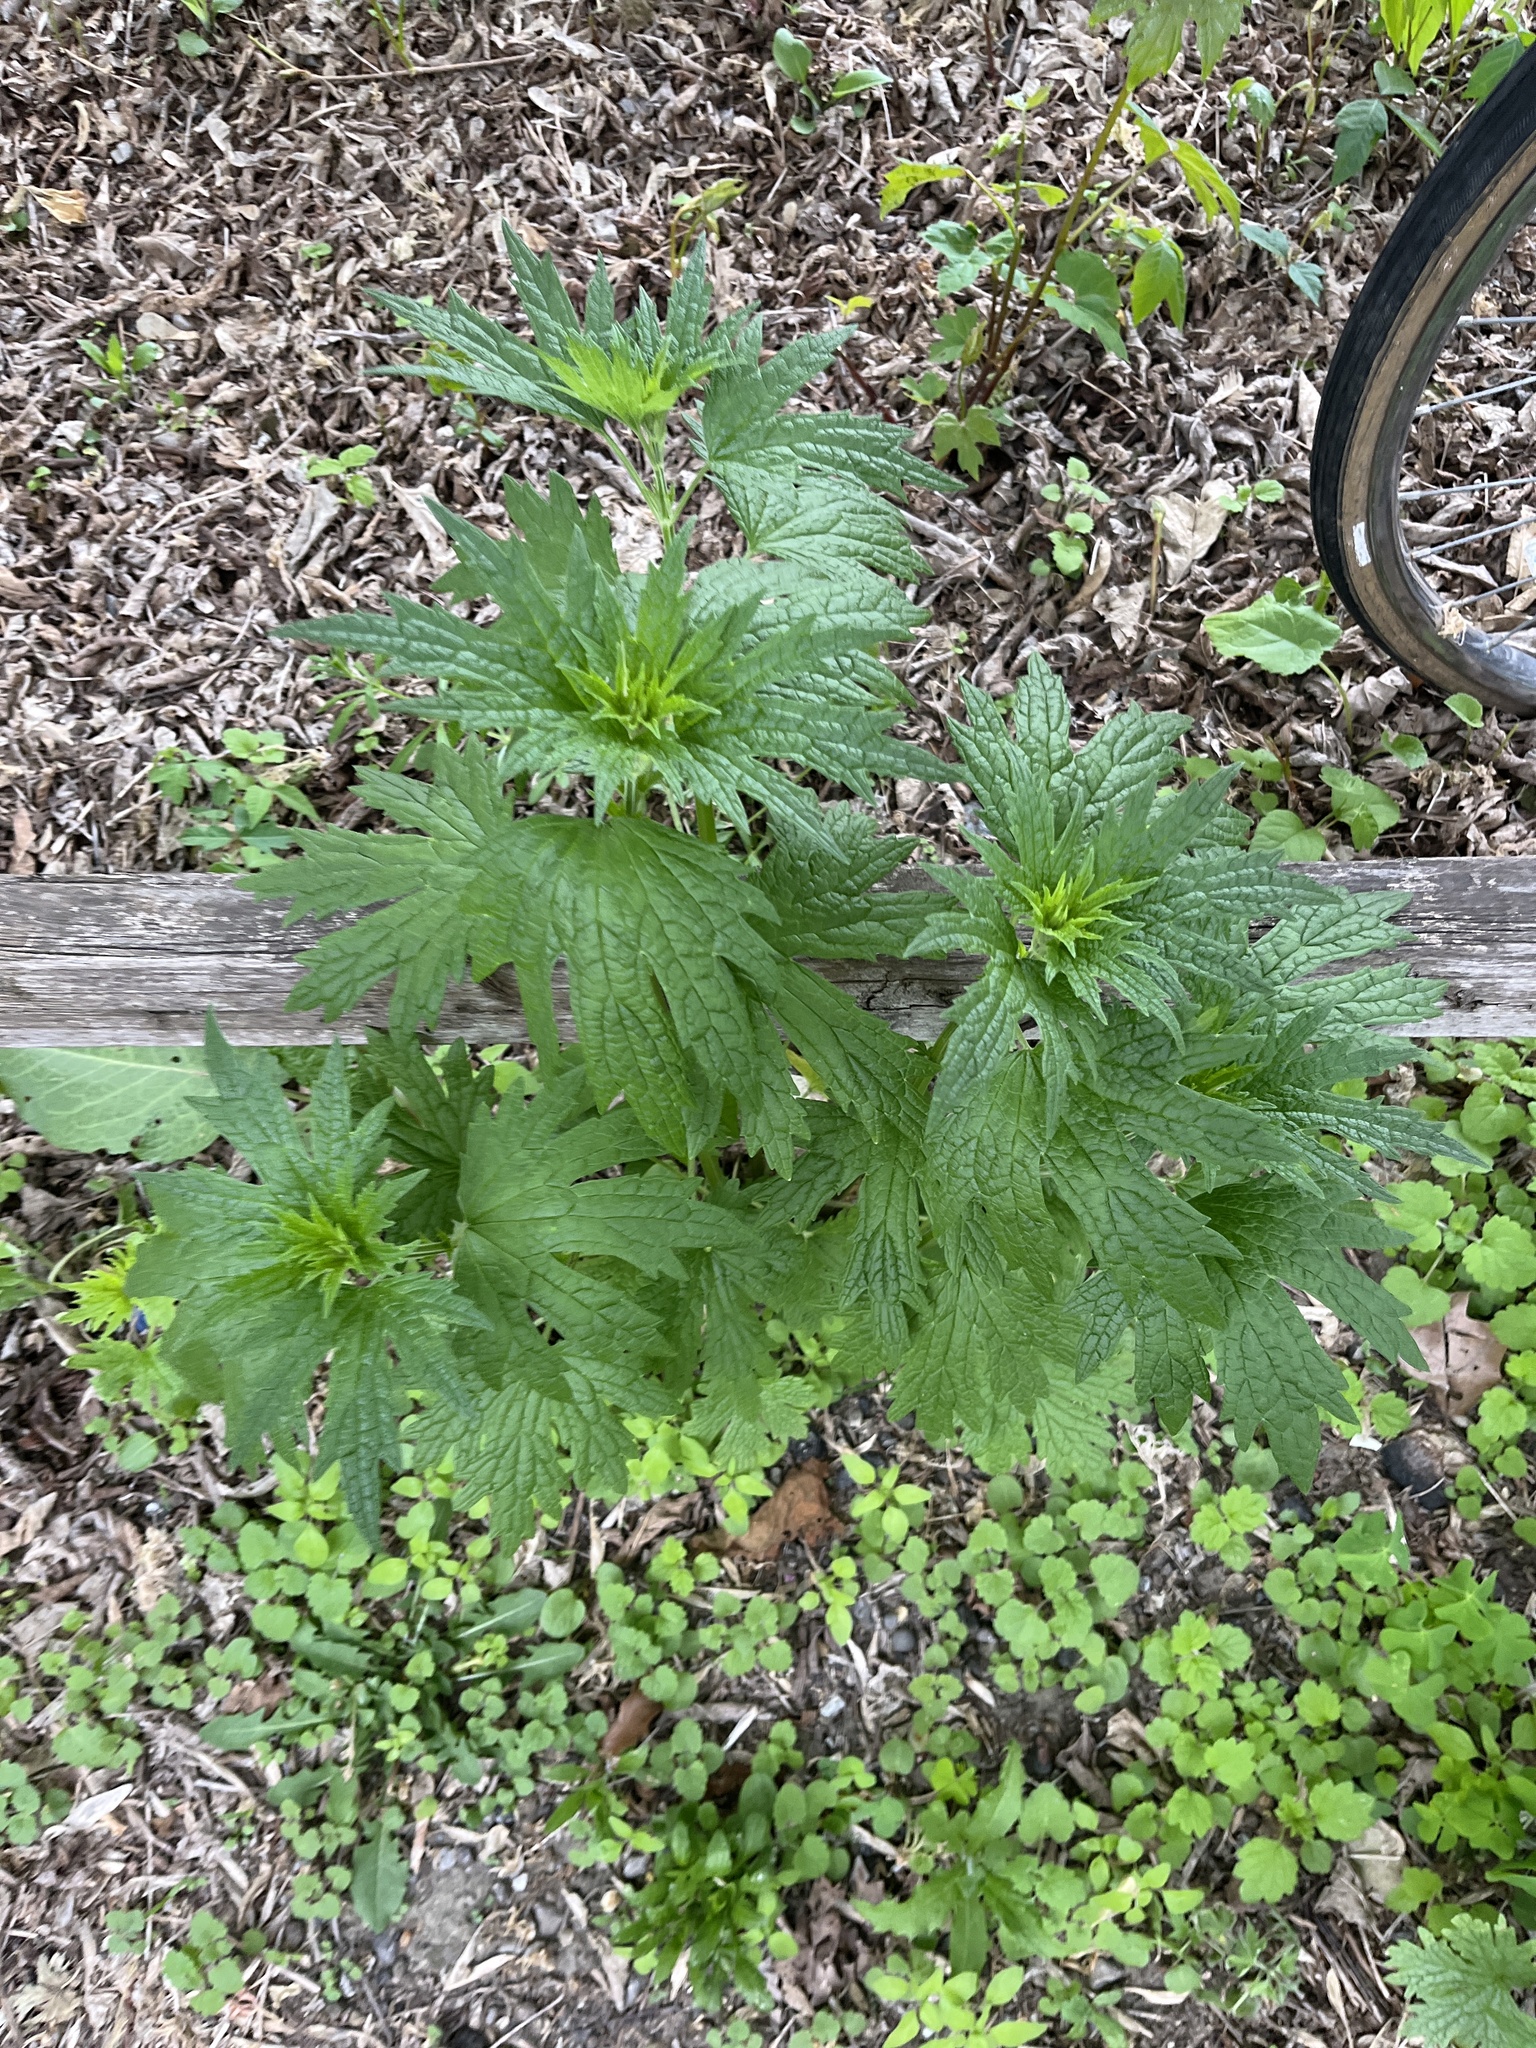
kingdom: Plantae
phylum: Tracheophyta
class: Magnoliopsida
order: Lamiales
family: Lamiaceae
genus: Leonurus
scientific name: Leonurus cardiaca
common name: Motherwort
